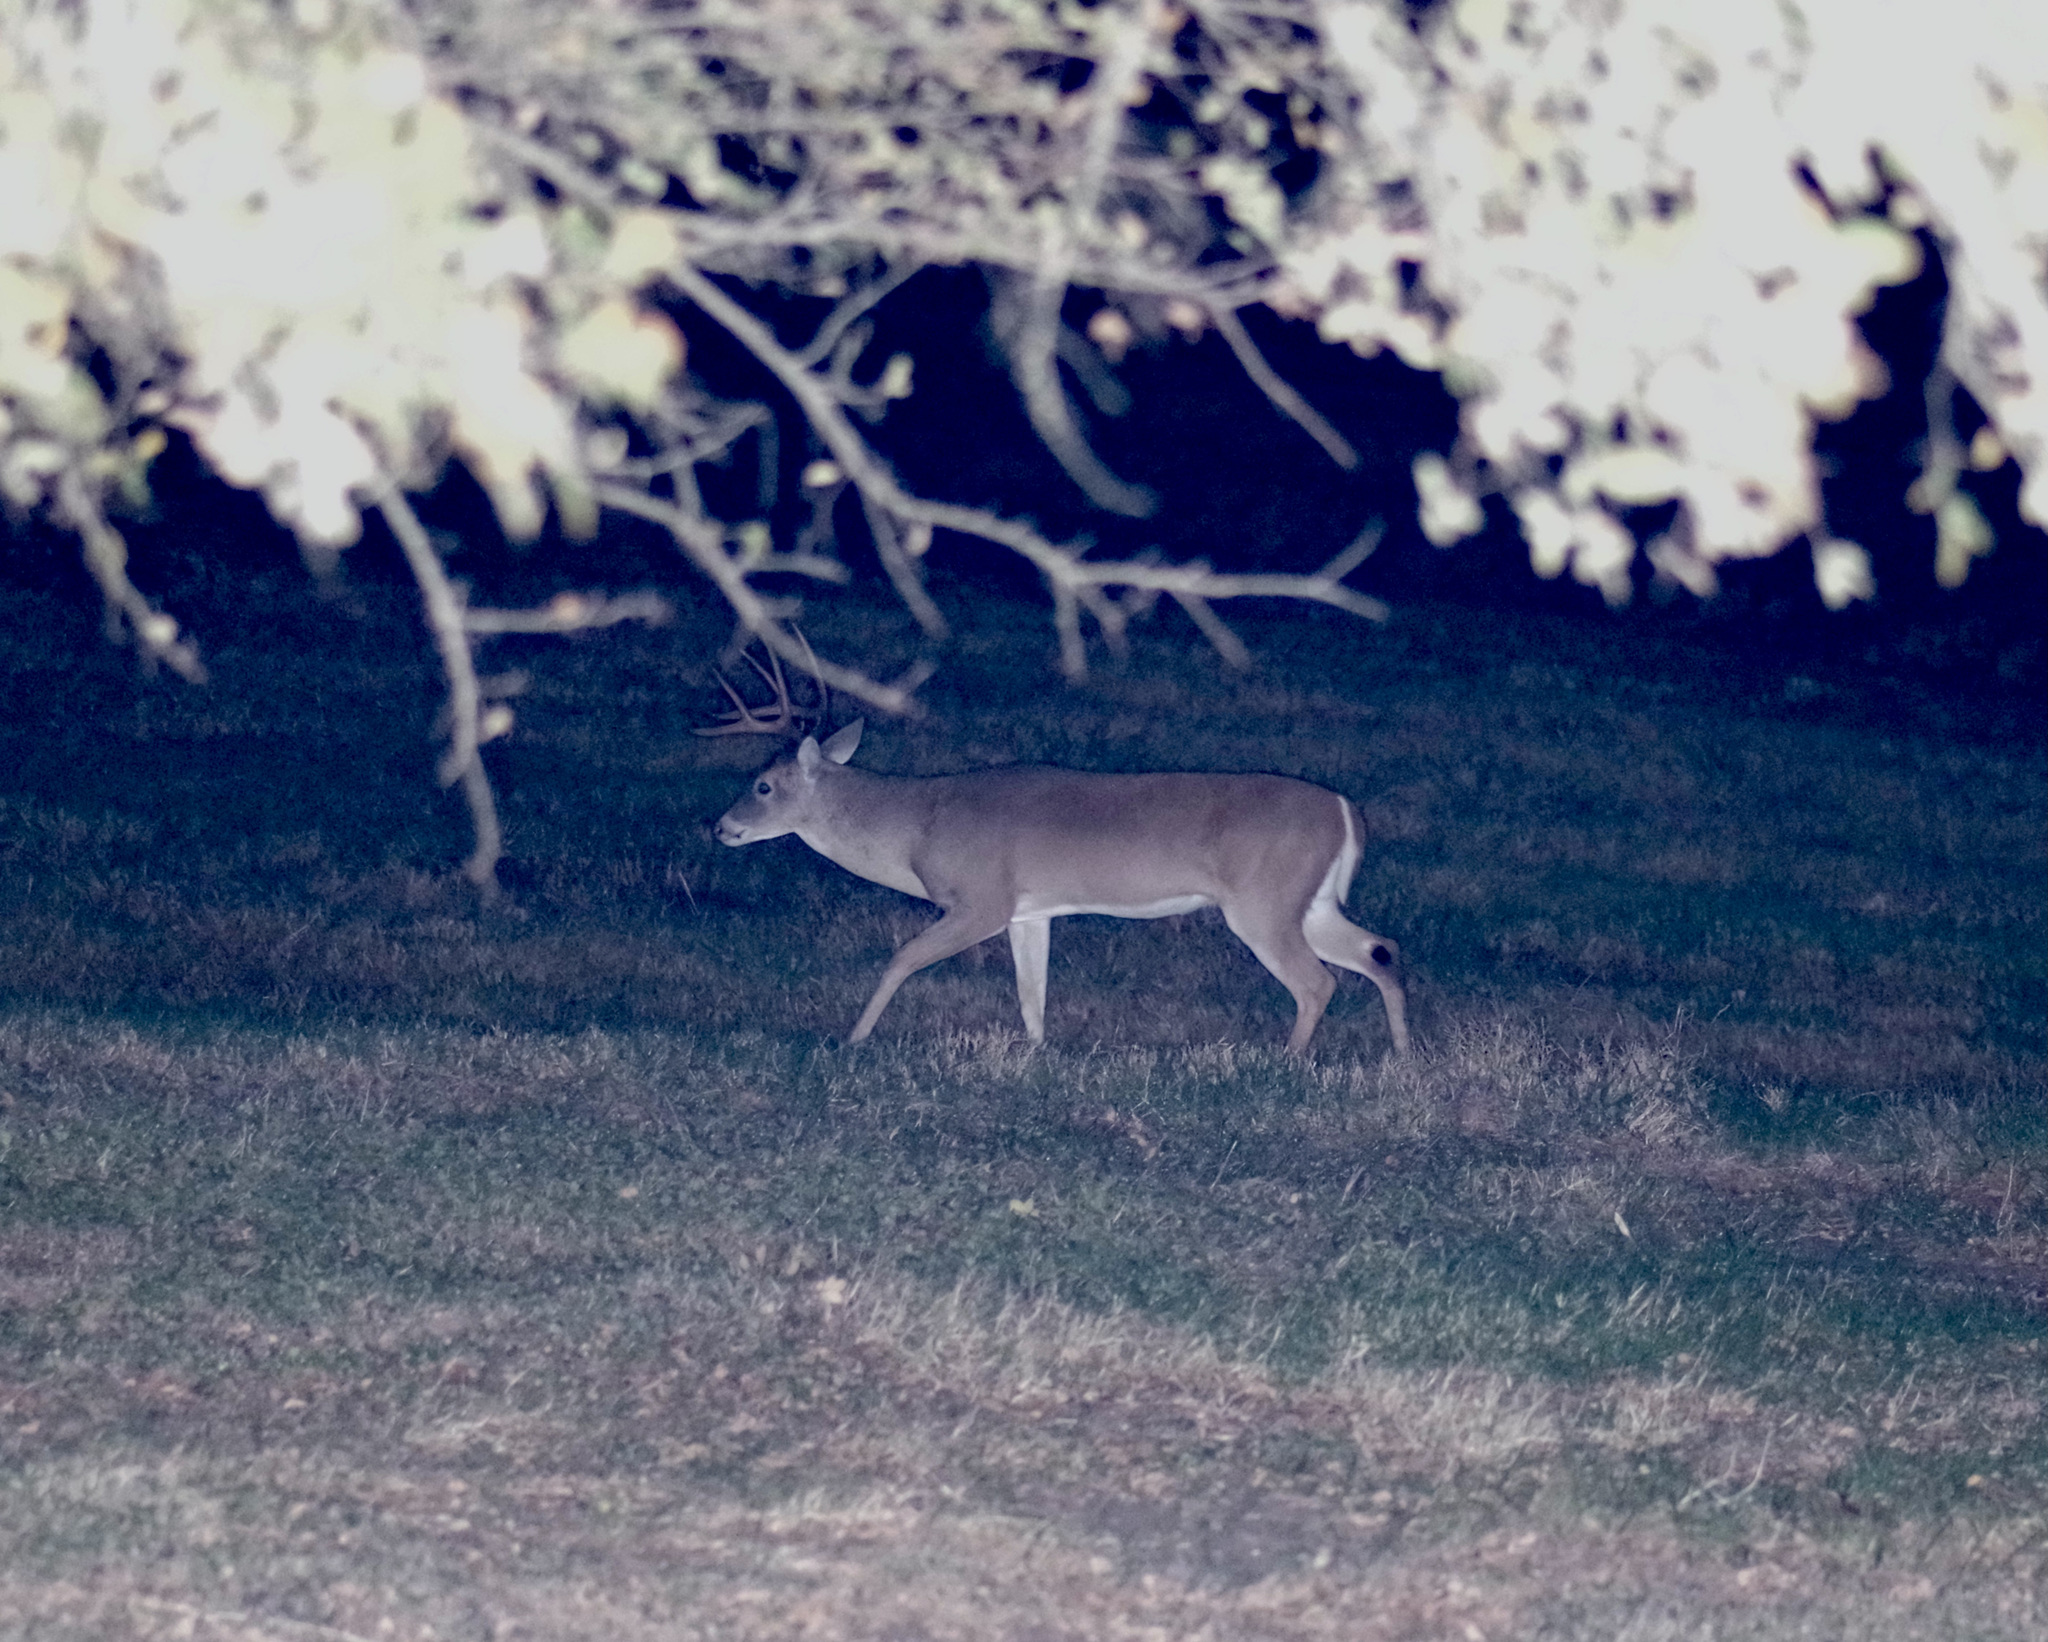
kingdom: Animalia
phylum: Chordata
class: Mammalia
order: Artiodactyla
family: Cervidae
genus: Odocoileus
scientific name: Odocoileus virginianus
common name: White-tailed deer
